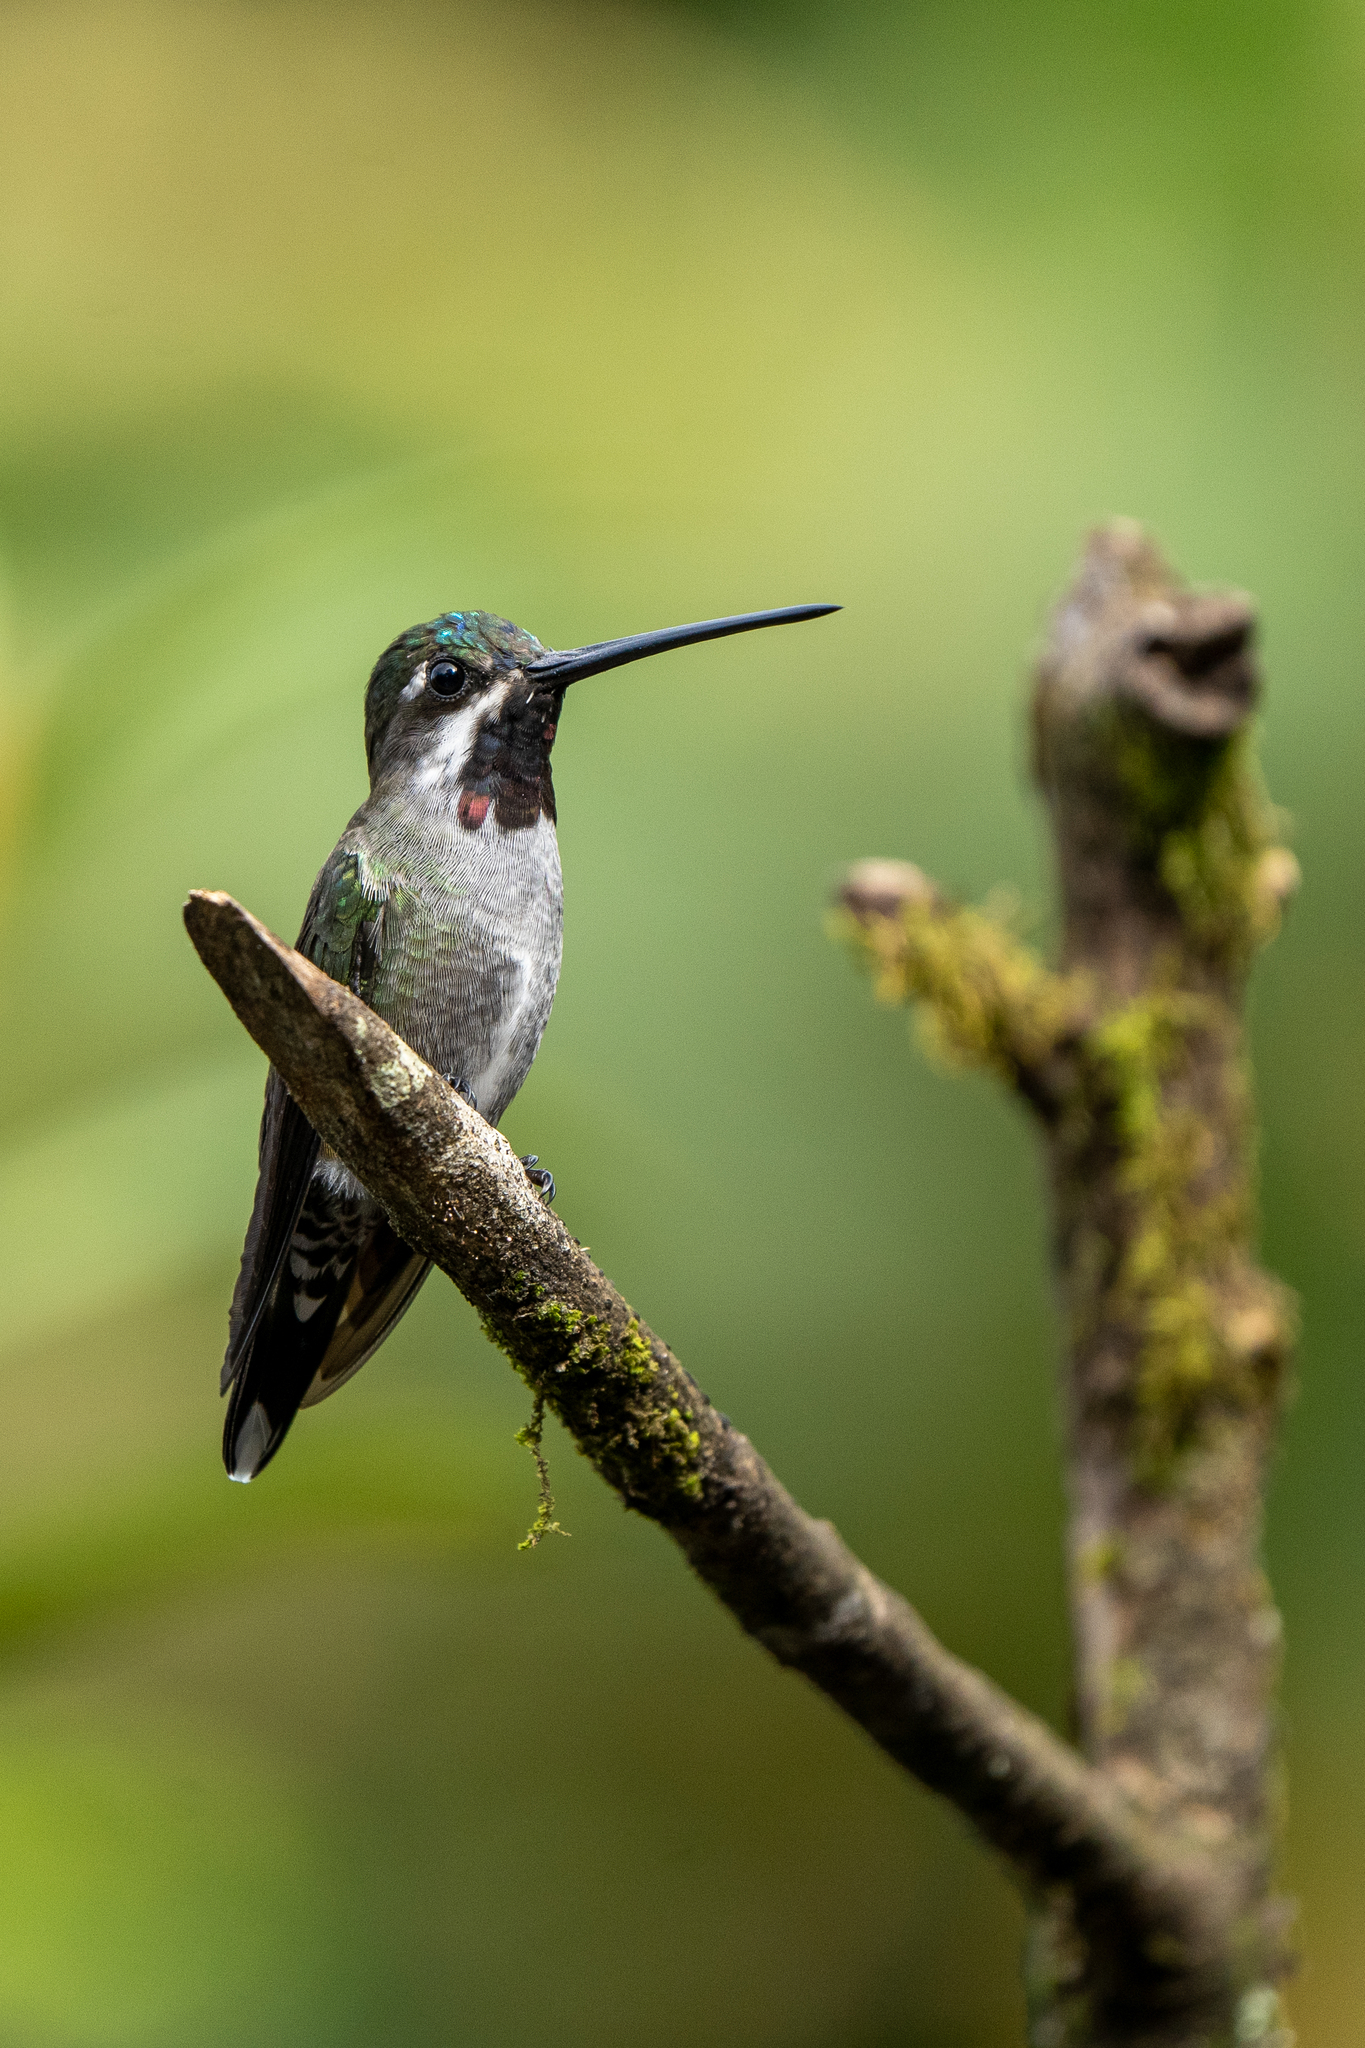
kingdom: Animalia
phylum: Chordata
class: Aves
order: Apodiformes
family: Trochilidae
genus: Heliomaster
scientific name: Heliomaster longirostris
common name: Long-billed starthroat
